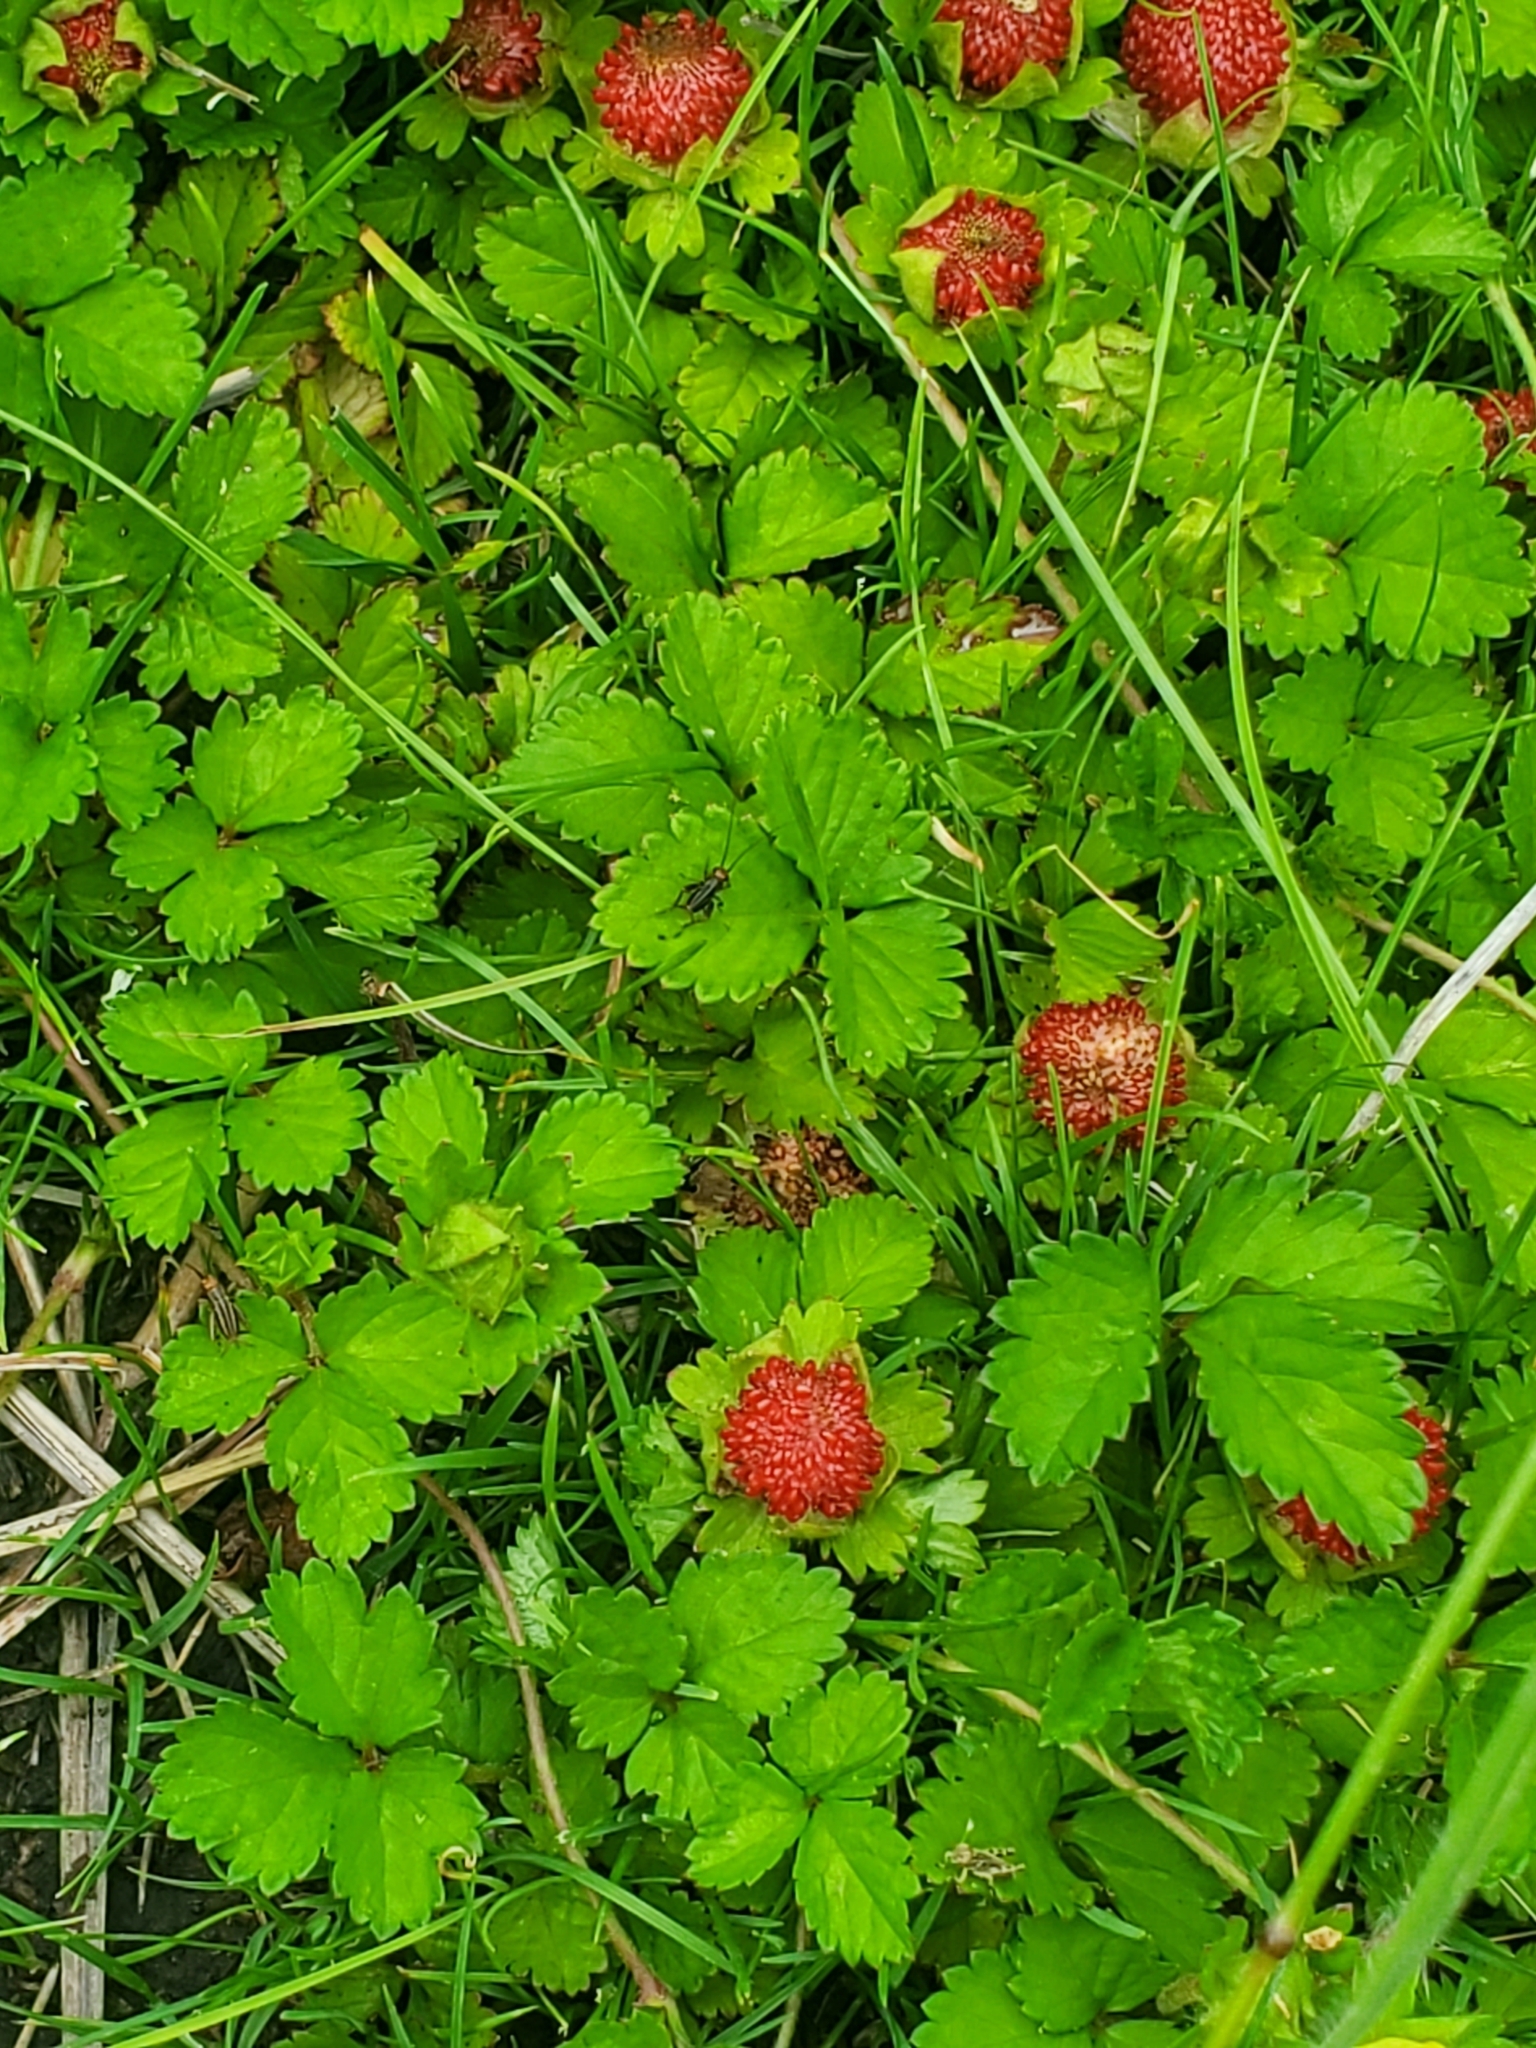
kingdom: Plantae
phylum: Tracheophyta
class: Magnoliopsida
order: Rosales
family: Rosaceae
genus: Potentilla
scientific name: Potentilla indica
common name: Yellow-flowered strawberry
